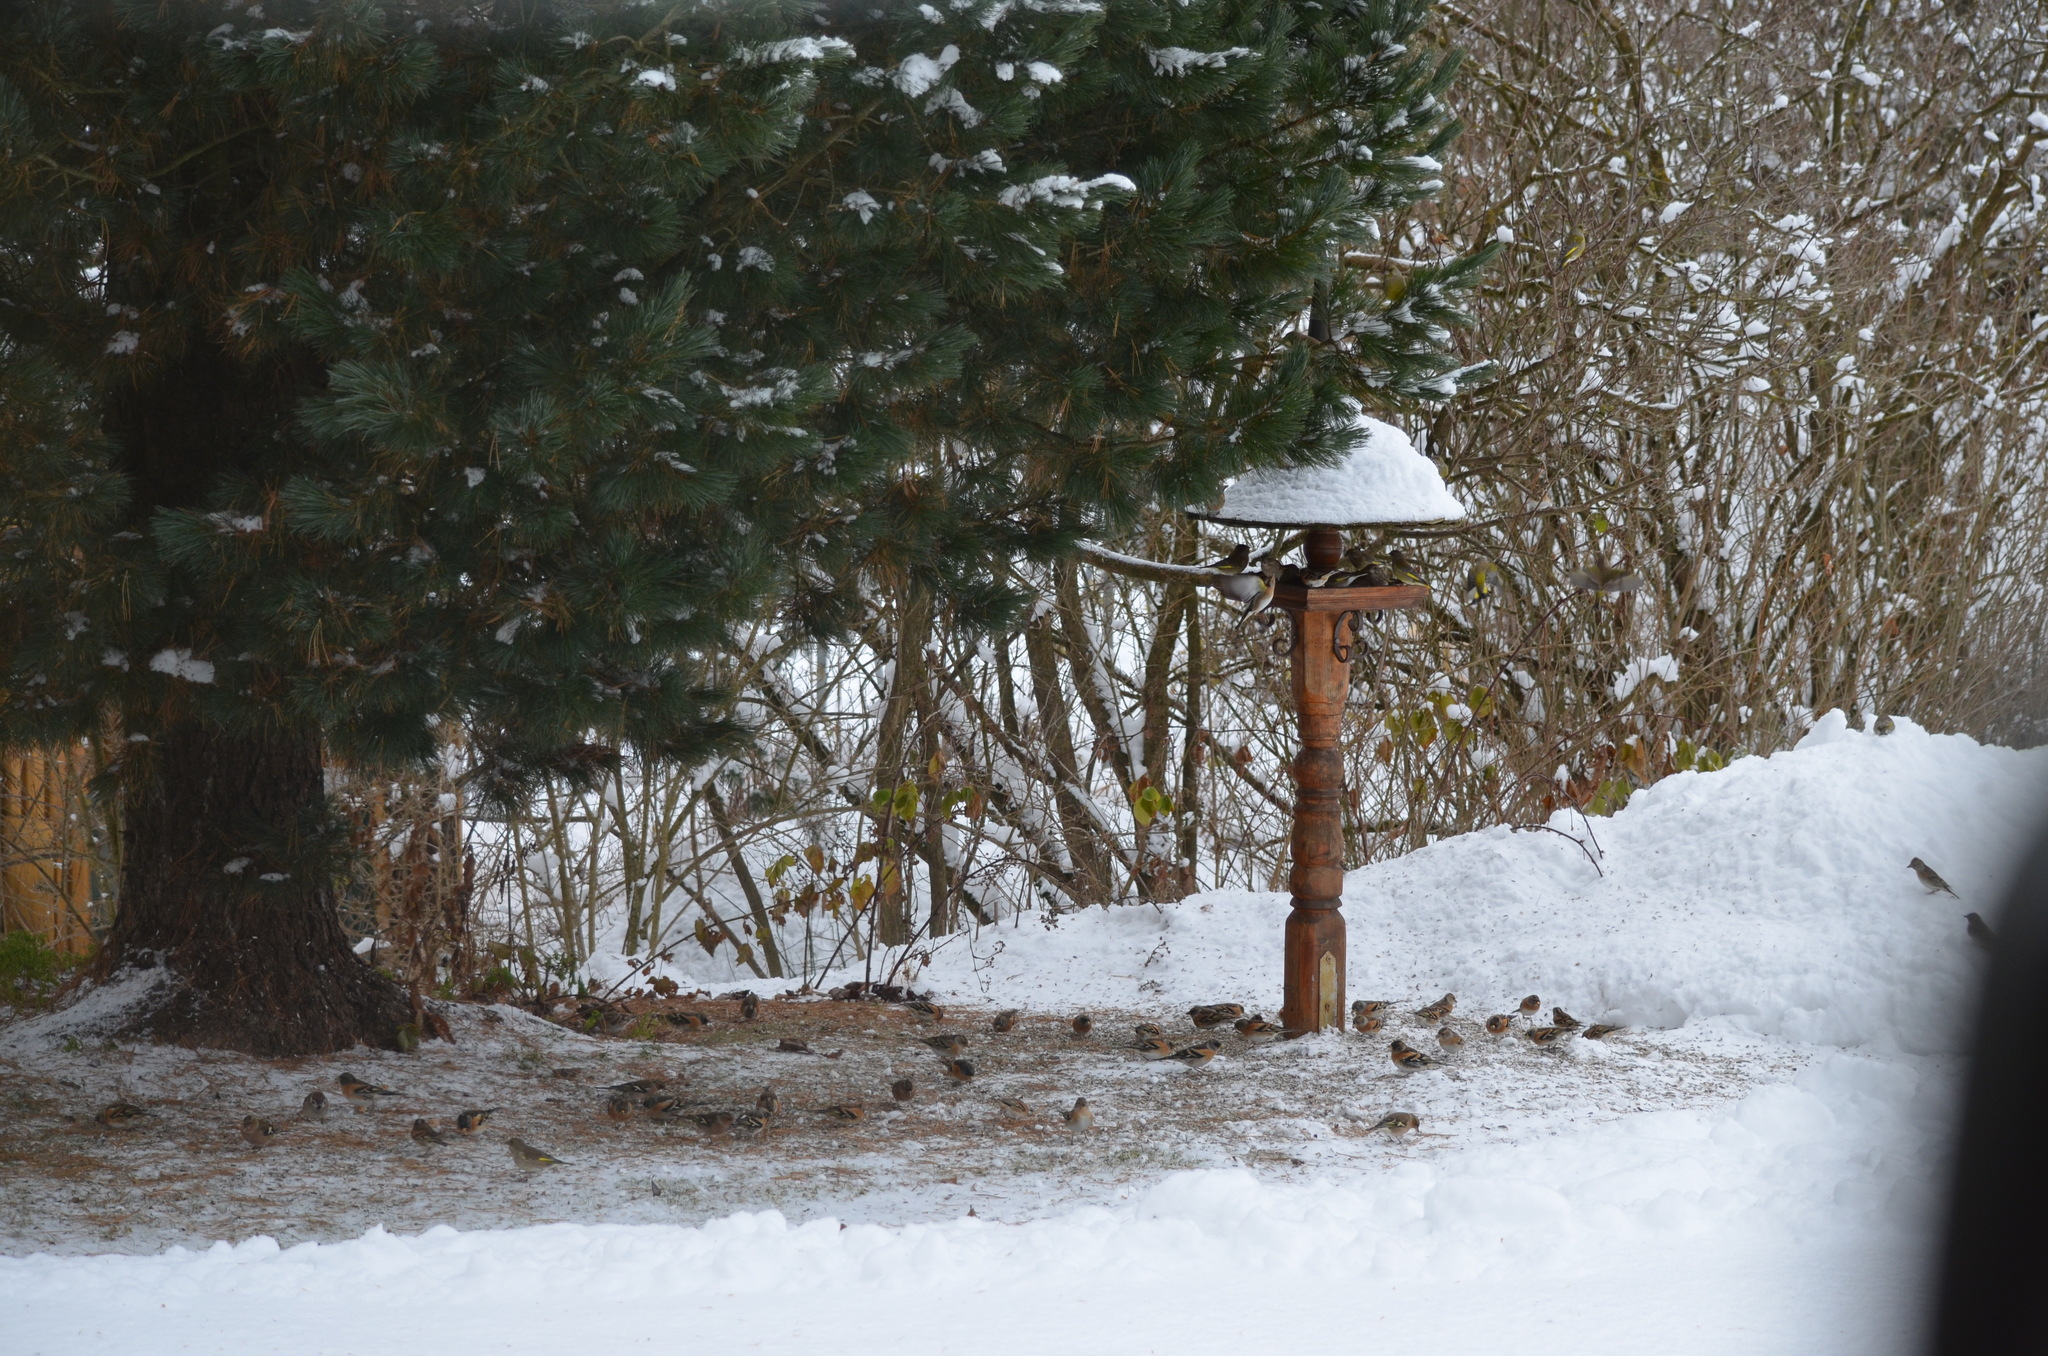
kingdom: Animalia
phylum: Chordata
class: Aves
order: Passeriformes
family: Fringillidae
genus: Fringilla
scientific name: Fringilla montifringilla
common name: Brambling
